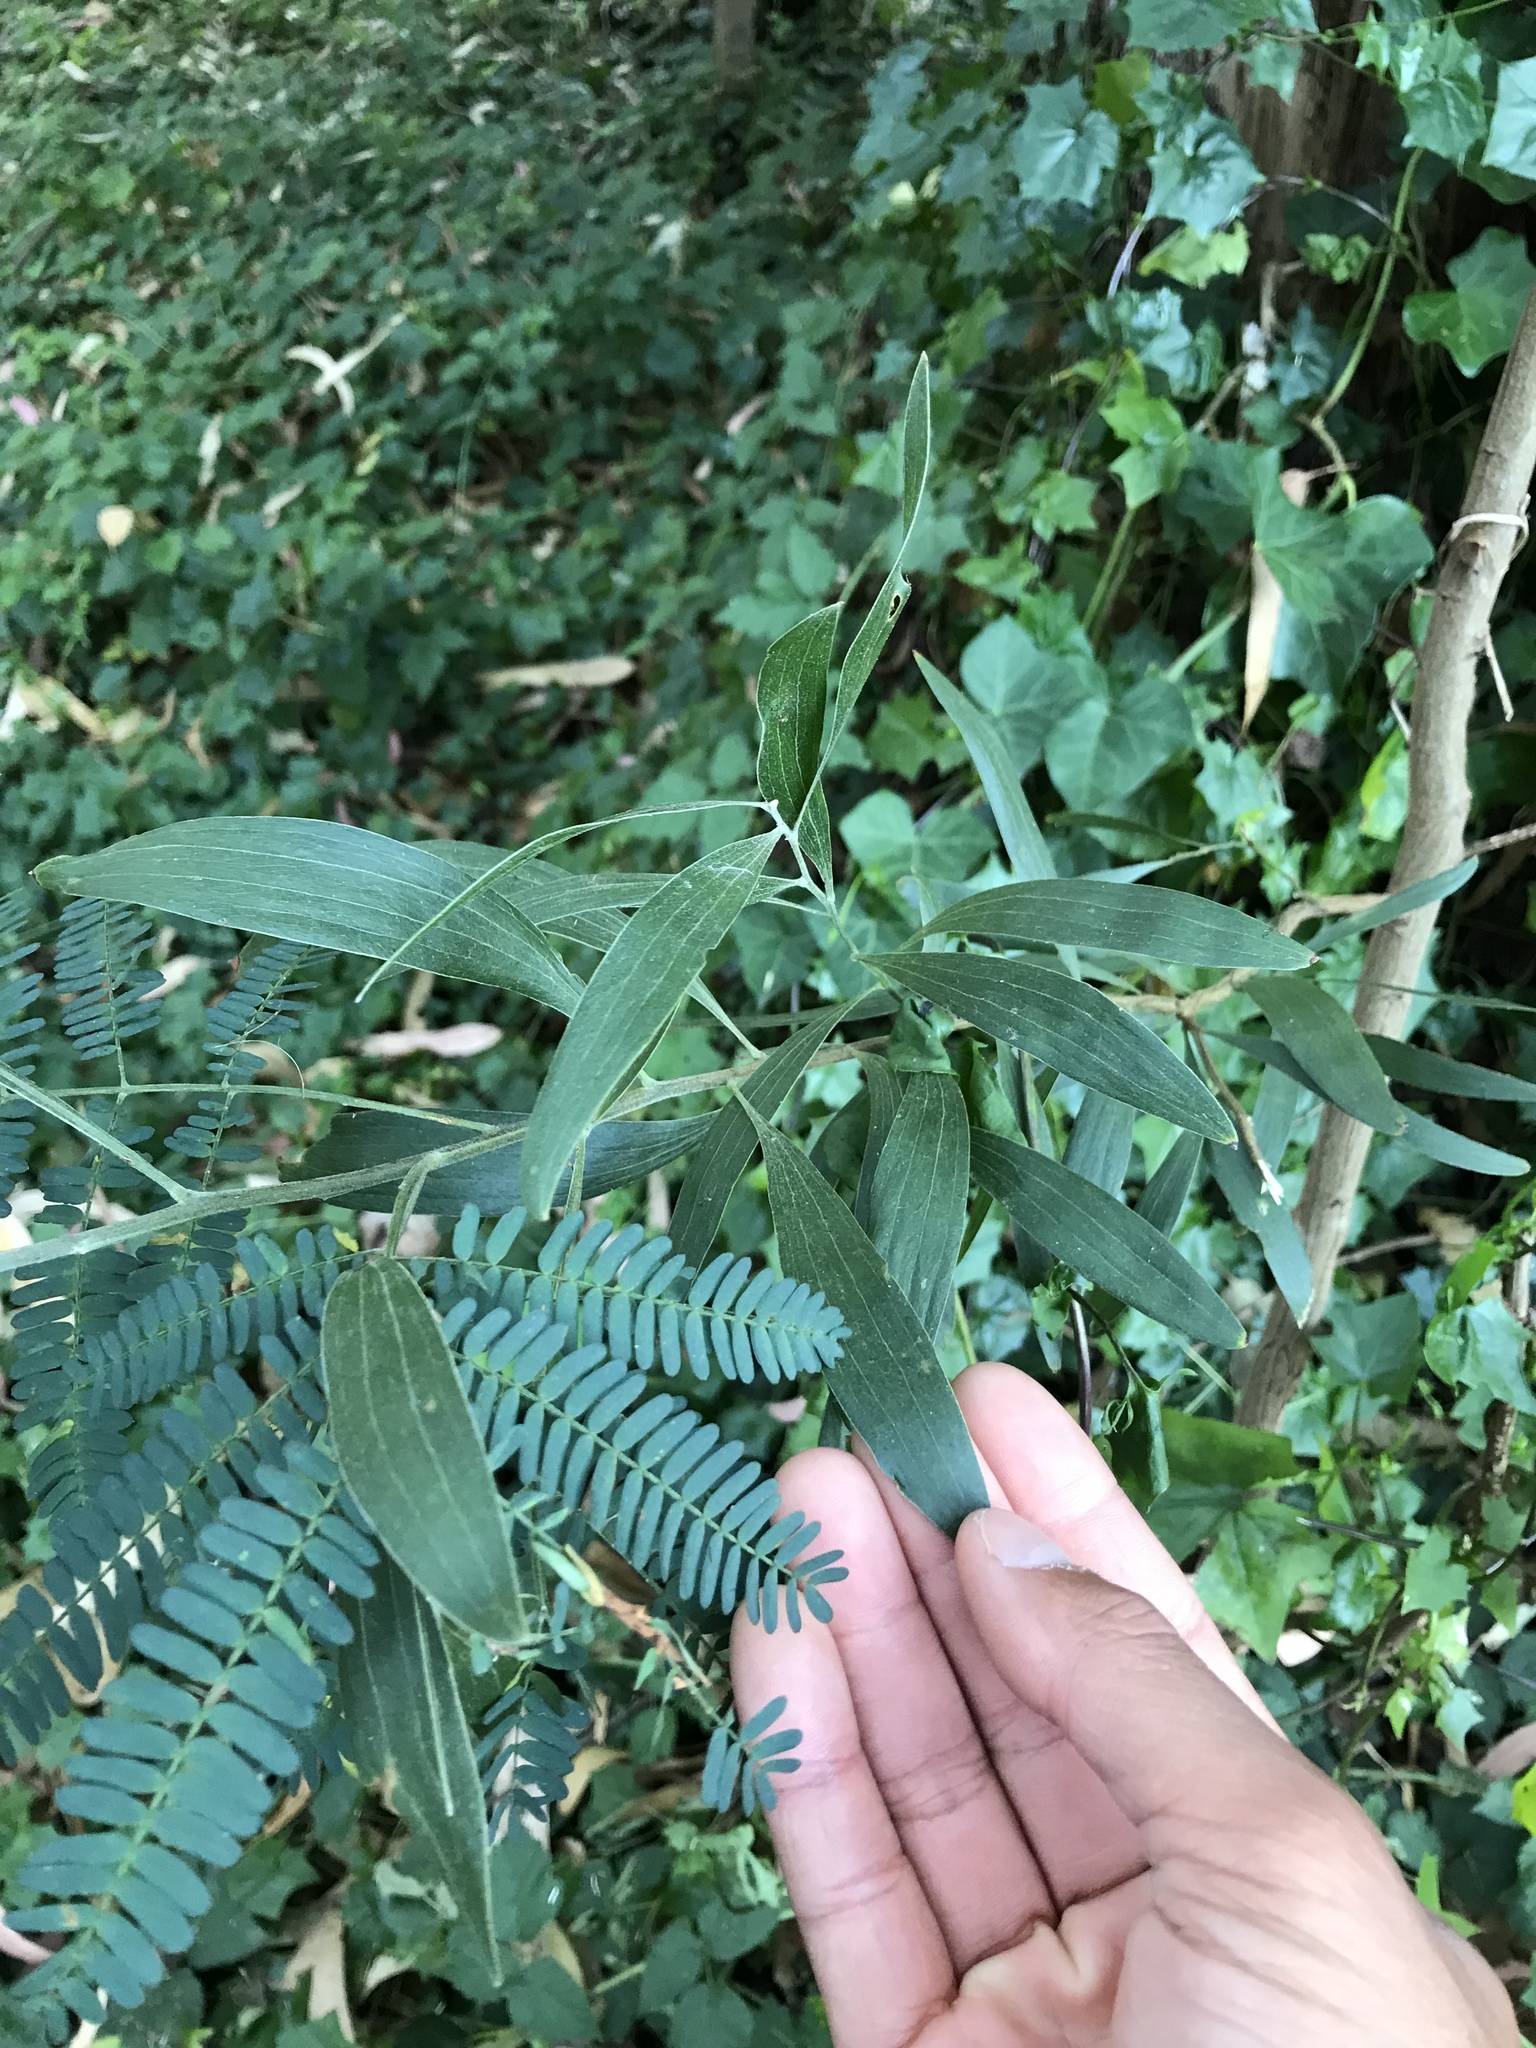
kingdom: Plantae
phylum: Tracheophyta
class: Magnoliopsida
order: Fabales
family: Fabaceae
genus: Acacia
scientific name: Acacia melanoxylon
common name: Blackwood
